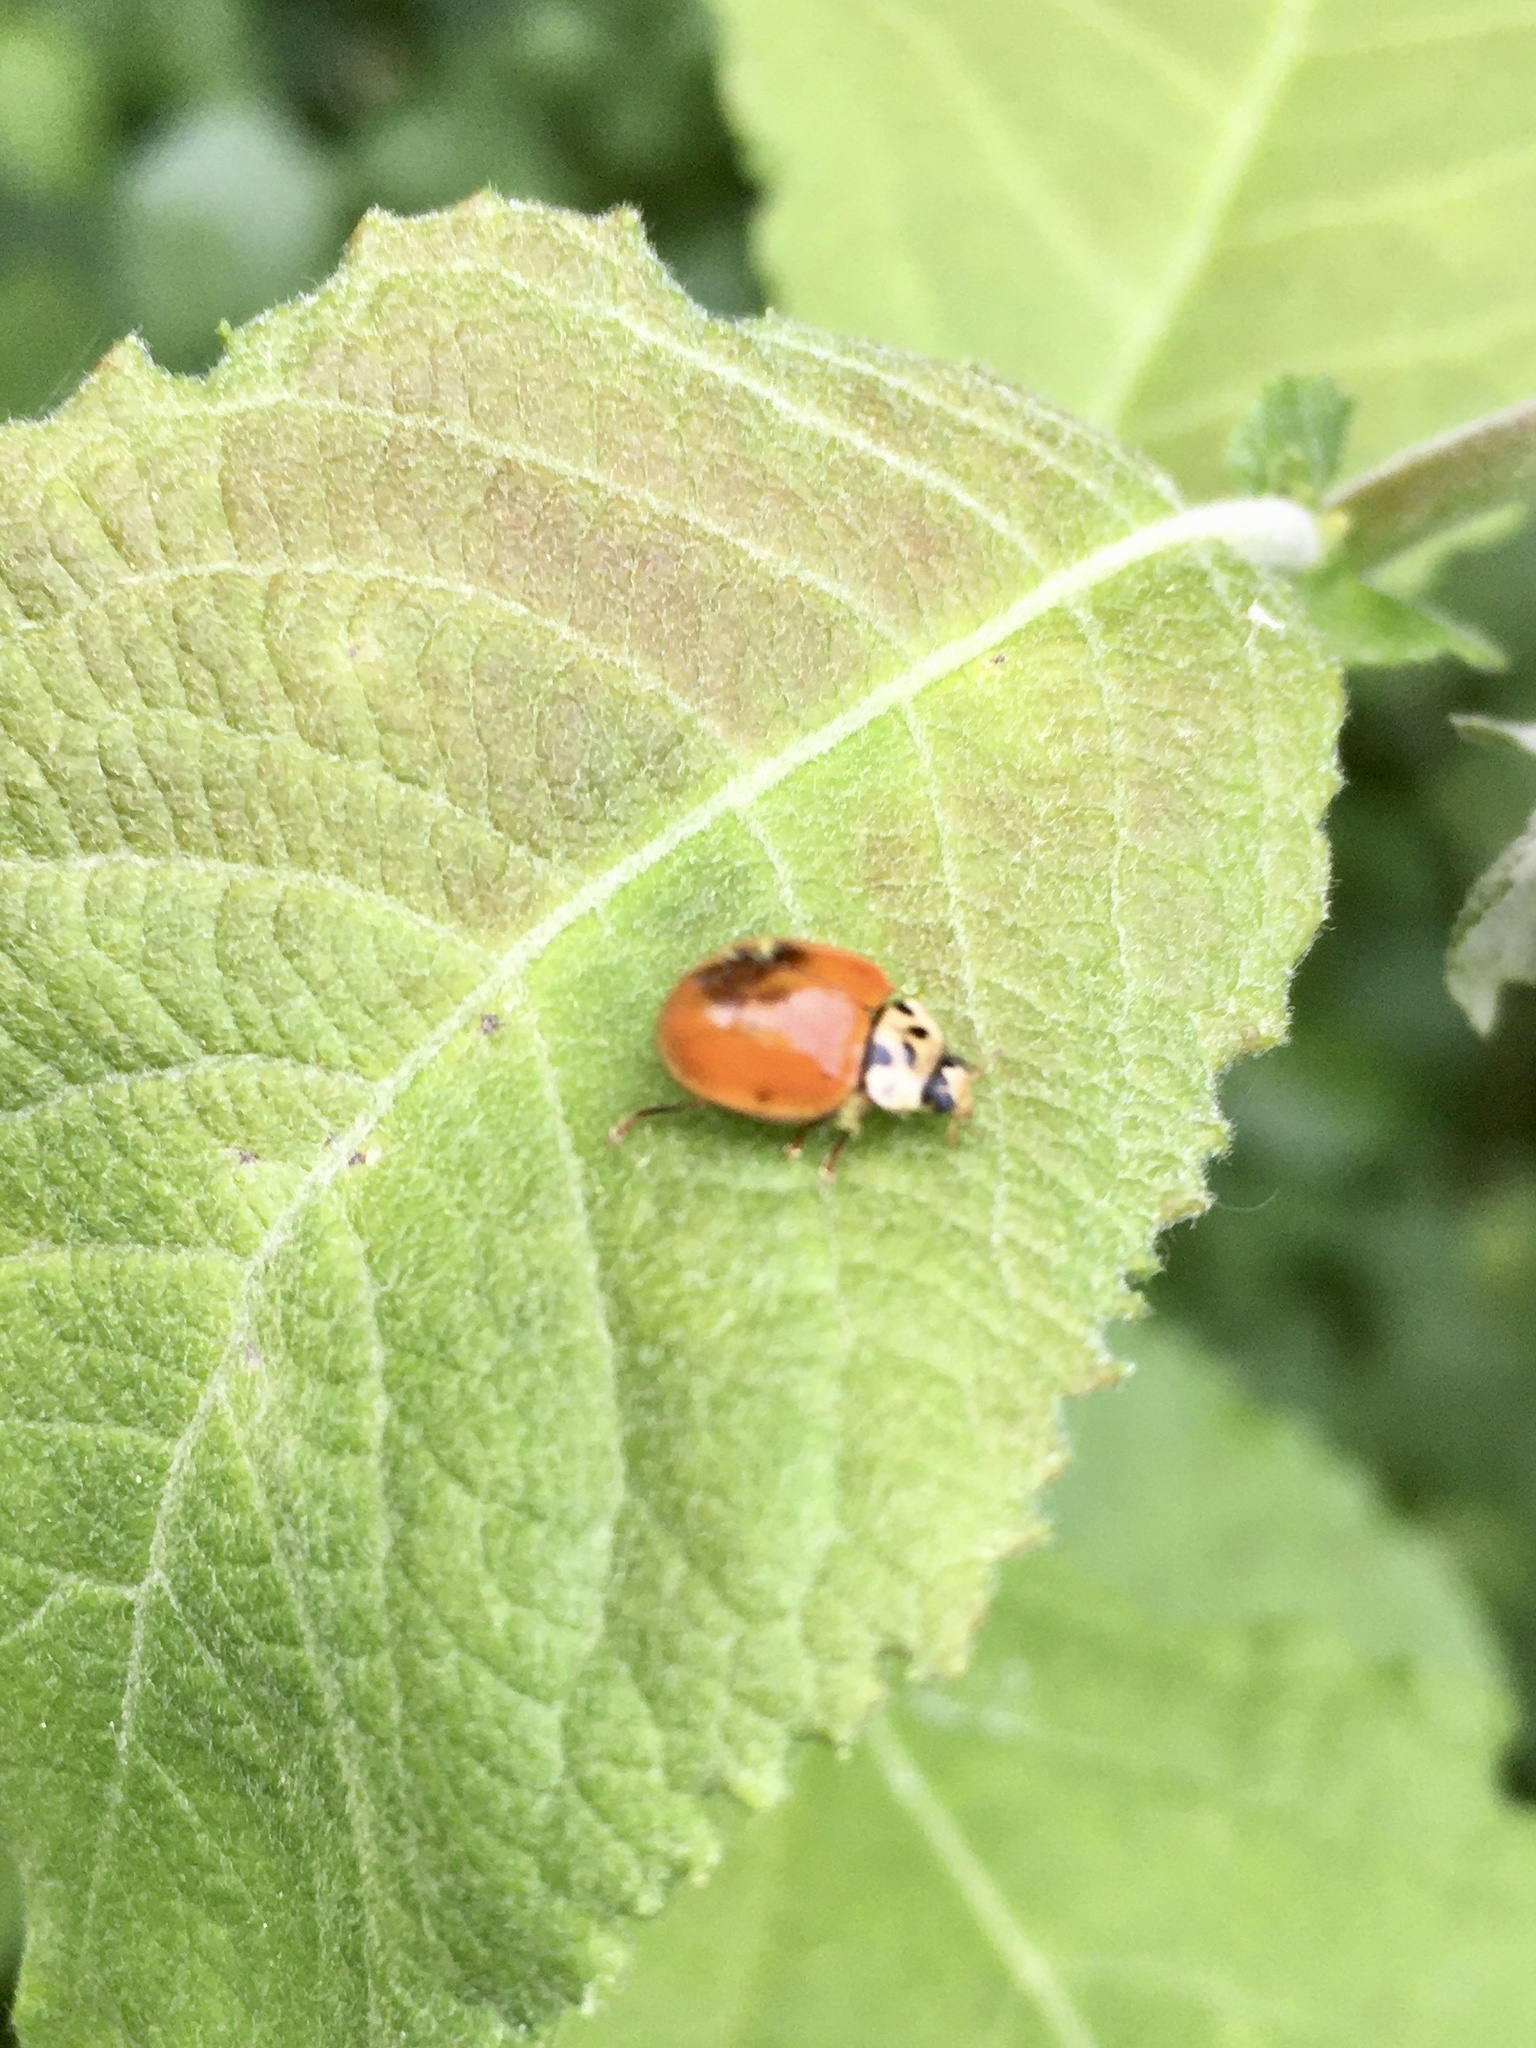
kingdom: Animalia
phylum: Arthropoda
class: Insecta
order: Coleoptera
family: Coccinellidae
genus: Harmonia
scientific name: Harmonia axyridis
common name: Harlequin ladybird
